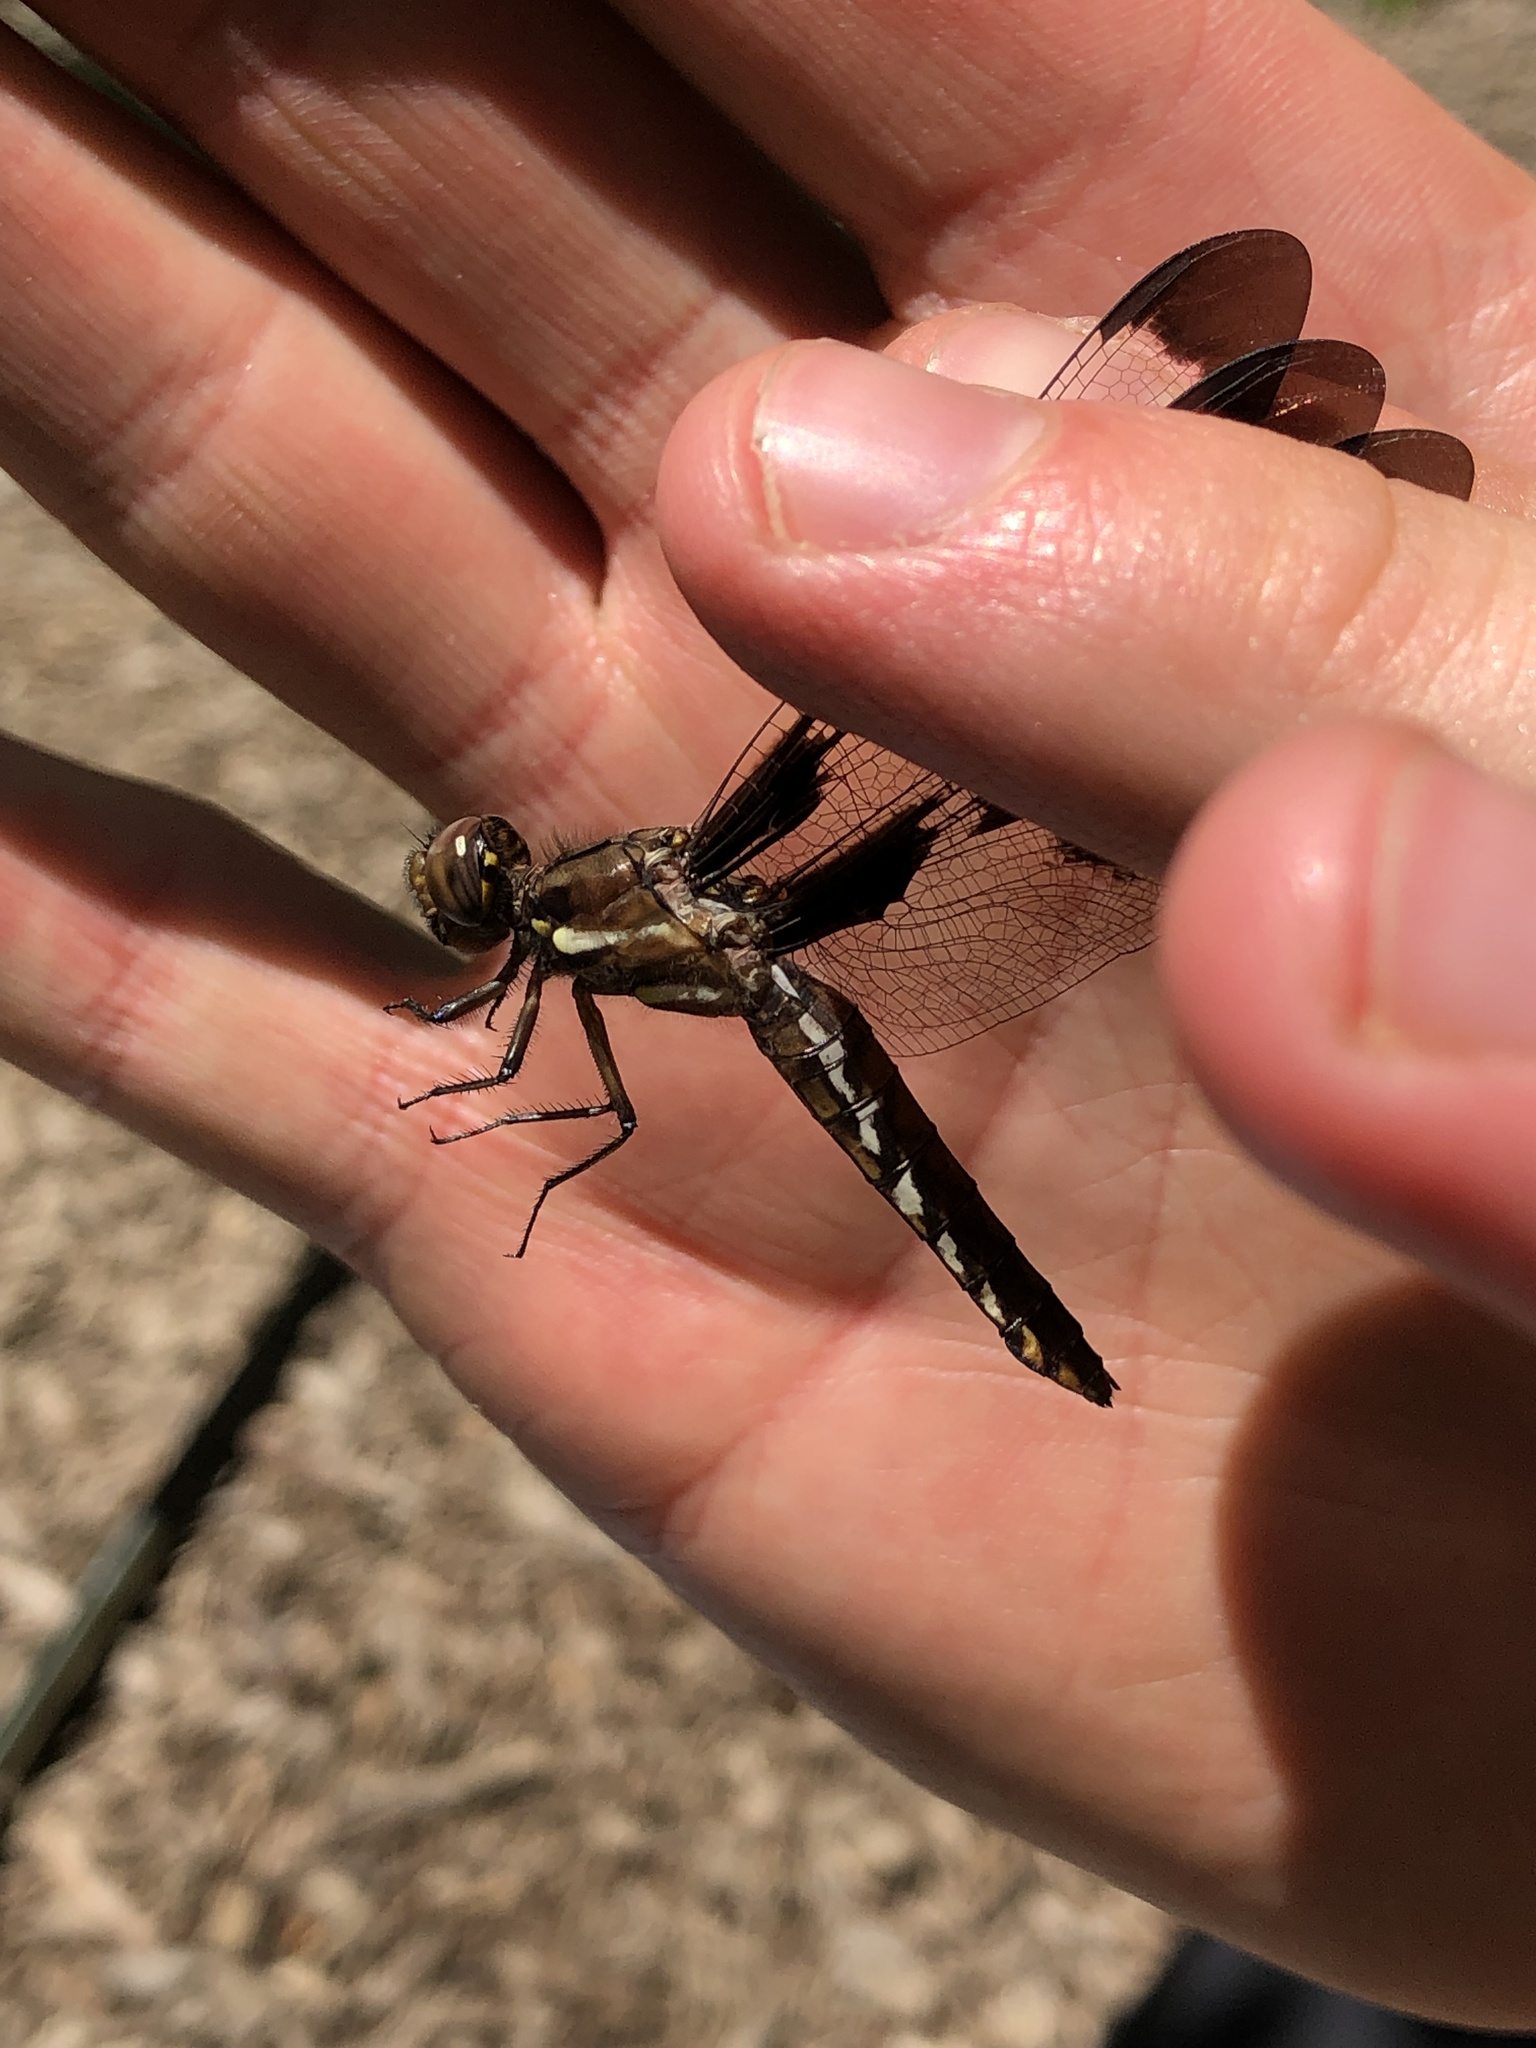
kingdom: Animalia
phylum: Arthropoda
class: Insecta
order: Odonata
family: Libellulidae
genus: Plathemis
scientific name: Plathemis lydia
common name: Common whitetail
